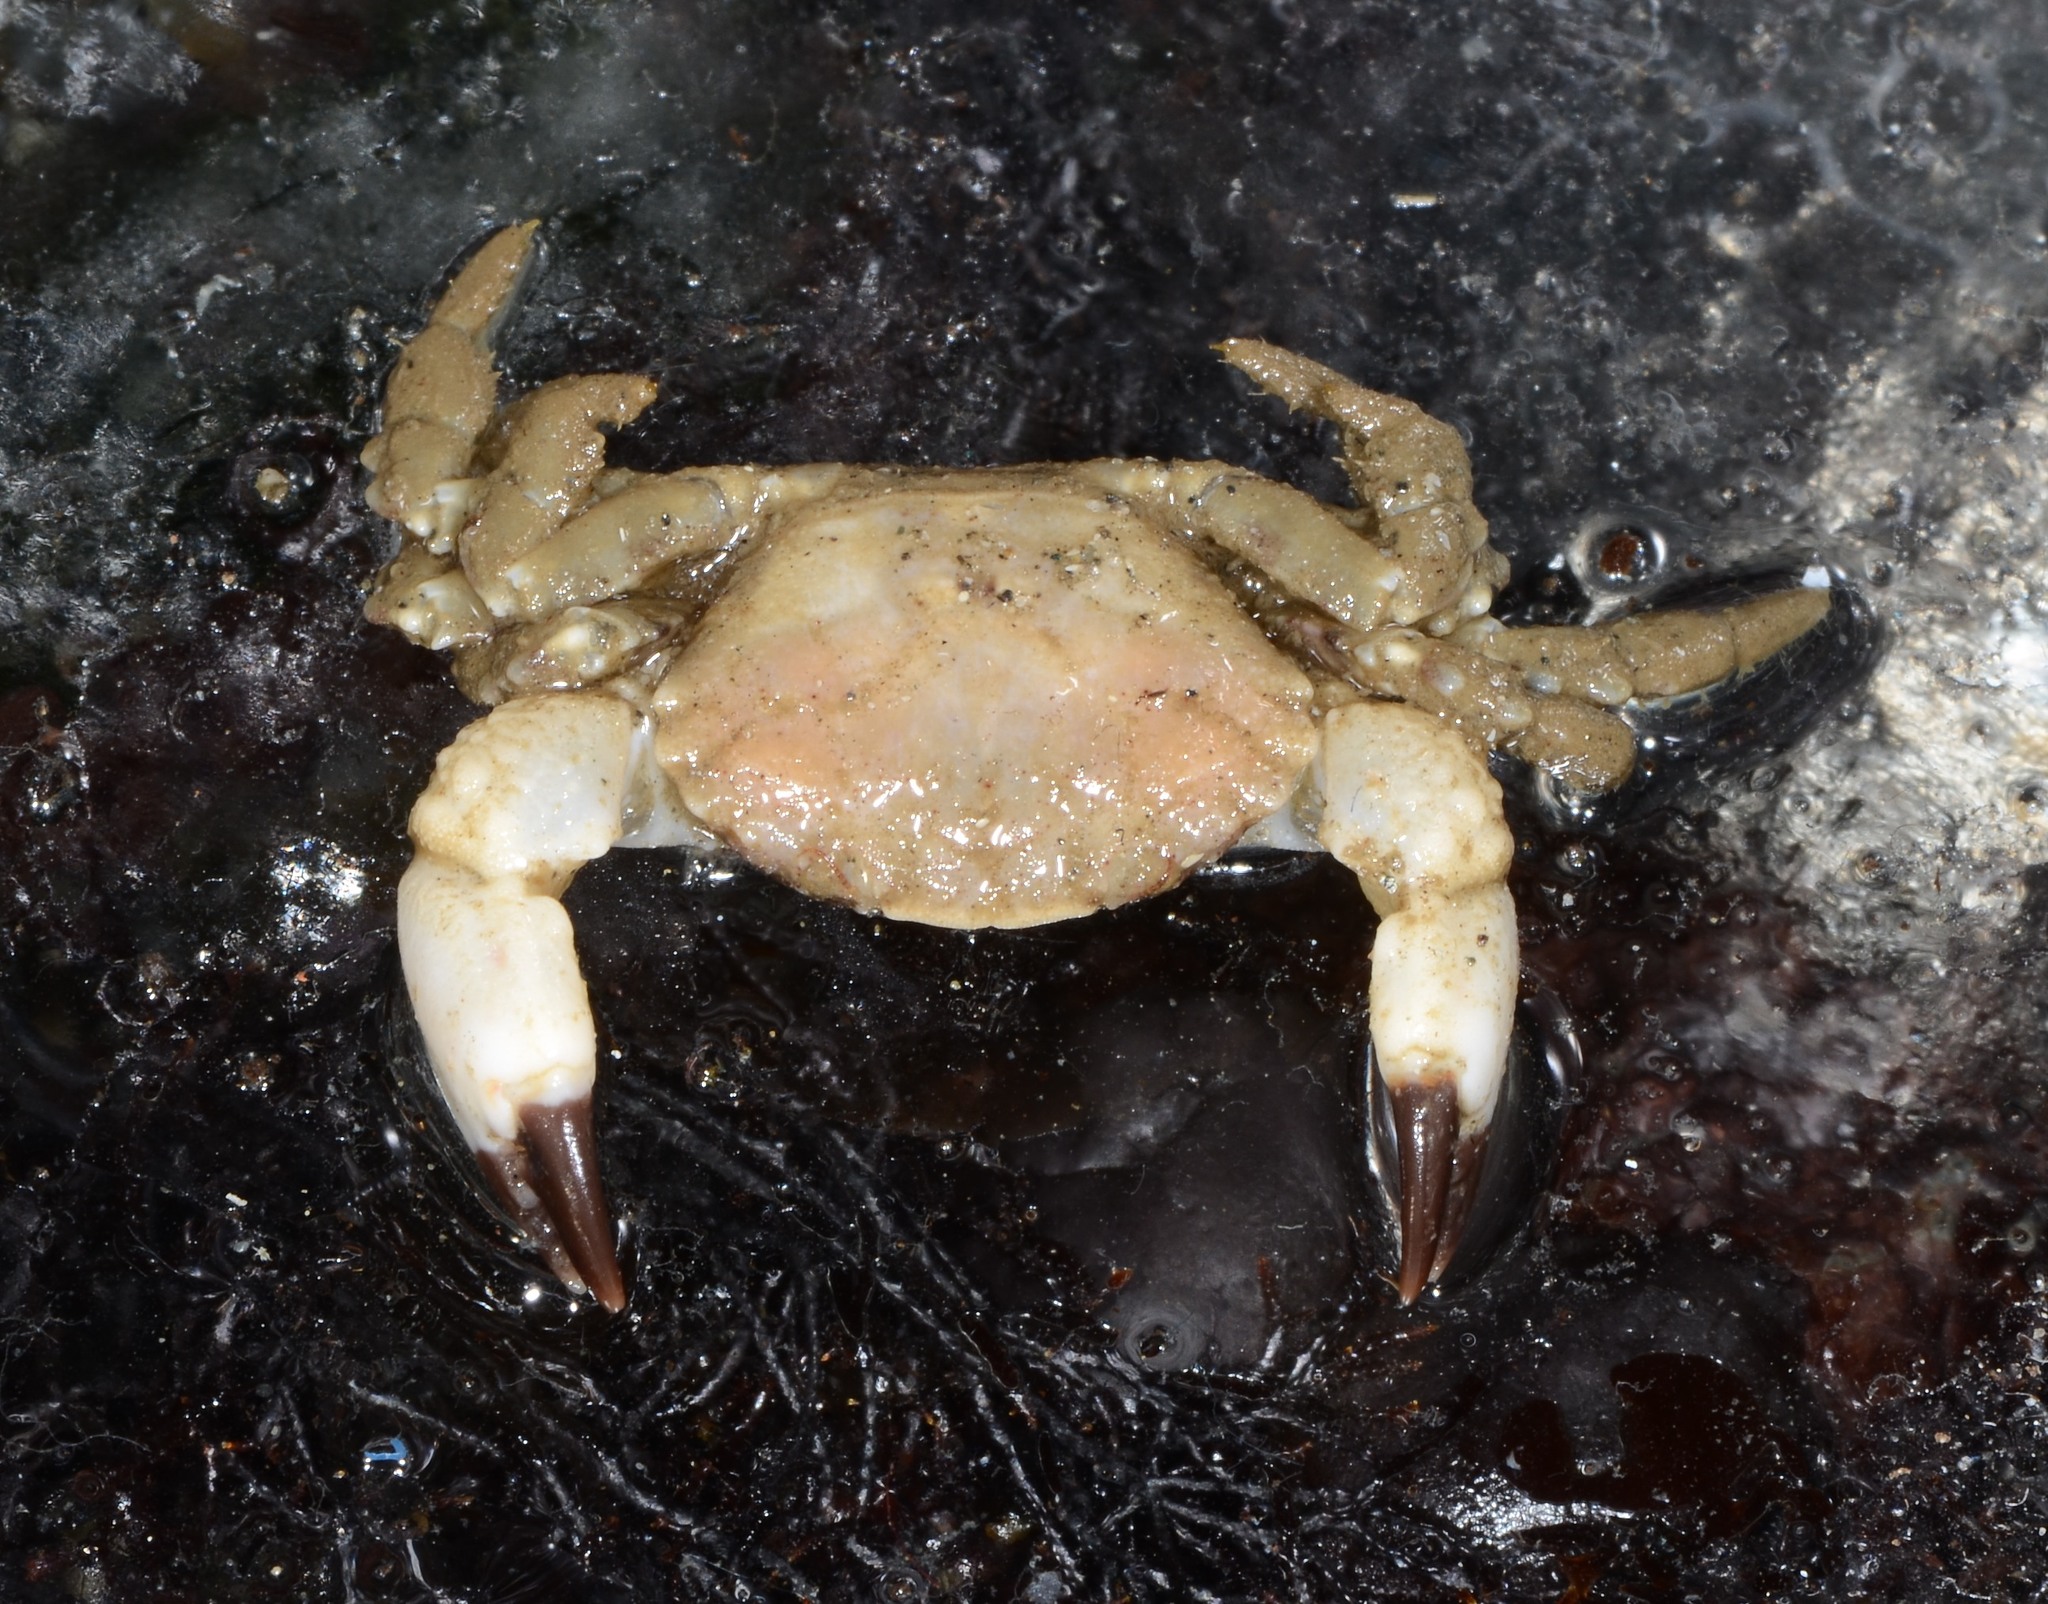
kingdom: Animalia
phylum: Arthropoda
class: Malacostraca
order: Decapoda
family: Panopeidae
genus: Lophopanopeus
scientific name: Lophopanopeus diegensis
